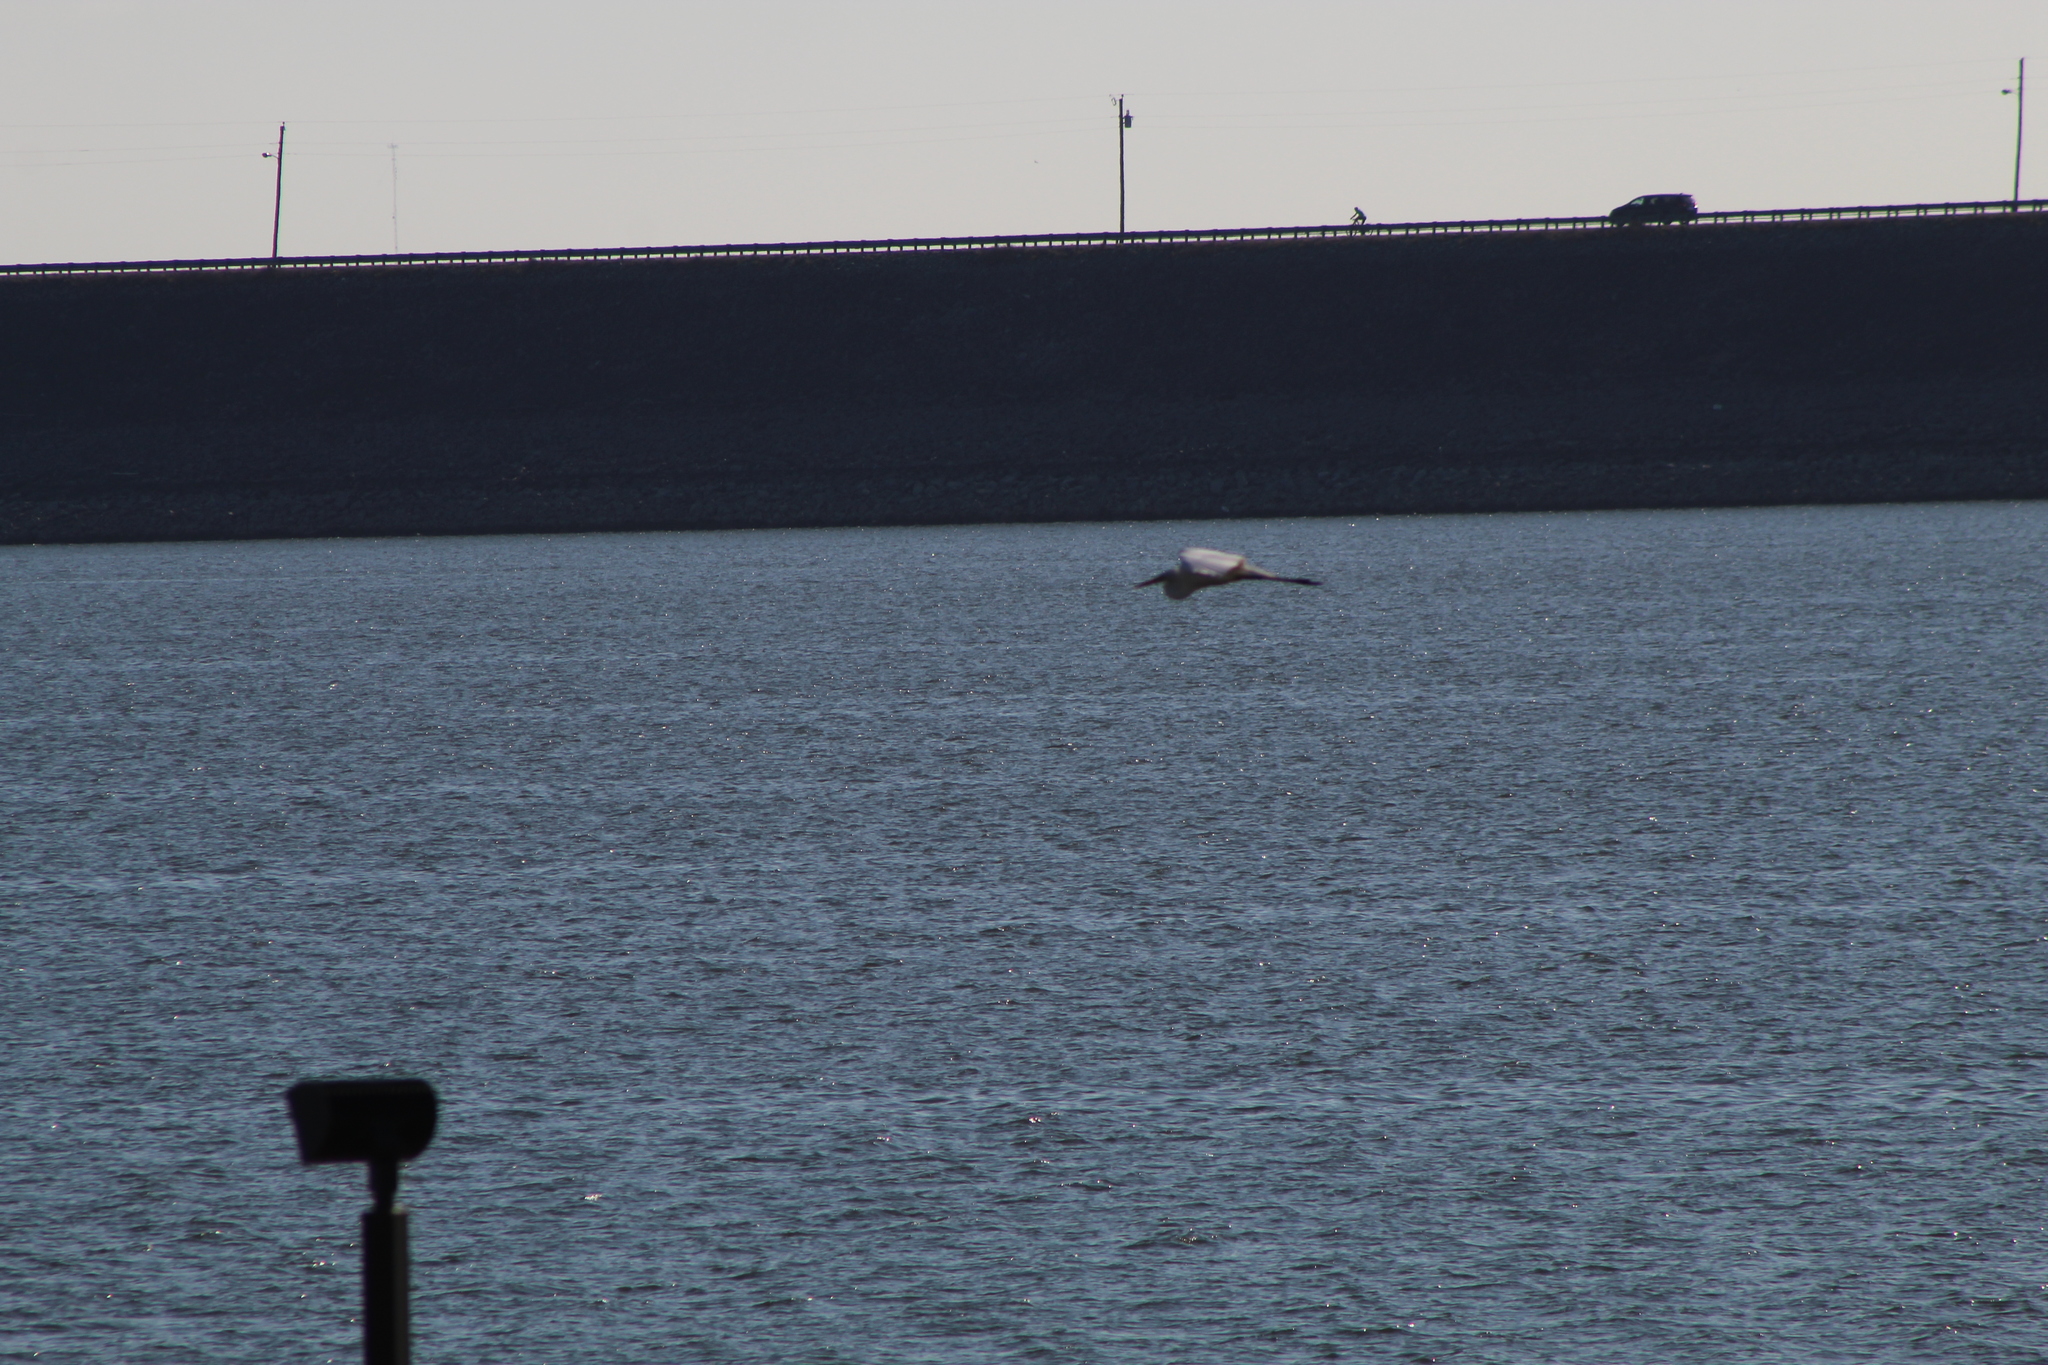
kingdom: Animalia
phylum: Chordata
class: Aves
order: Pelecaniformes
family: Ardeidae
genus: Ardea
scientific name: Ardea herodias
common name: Great blue heron
